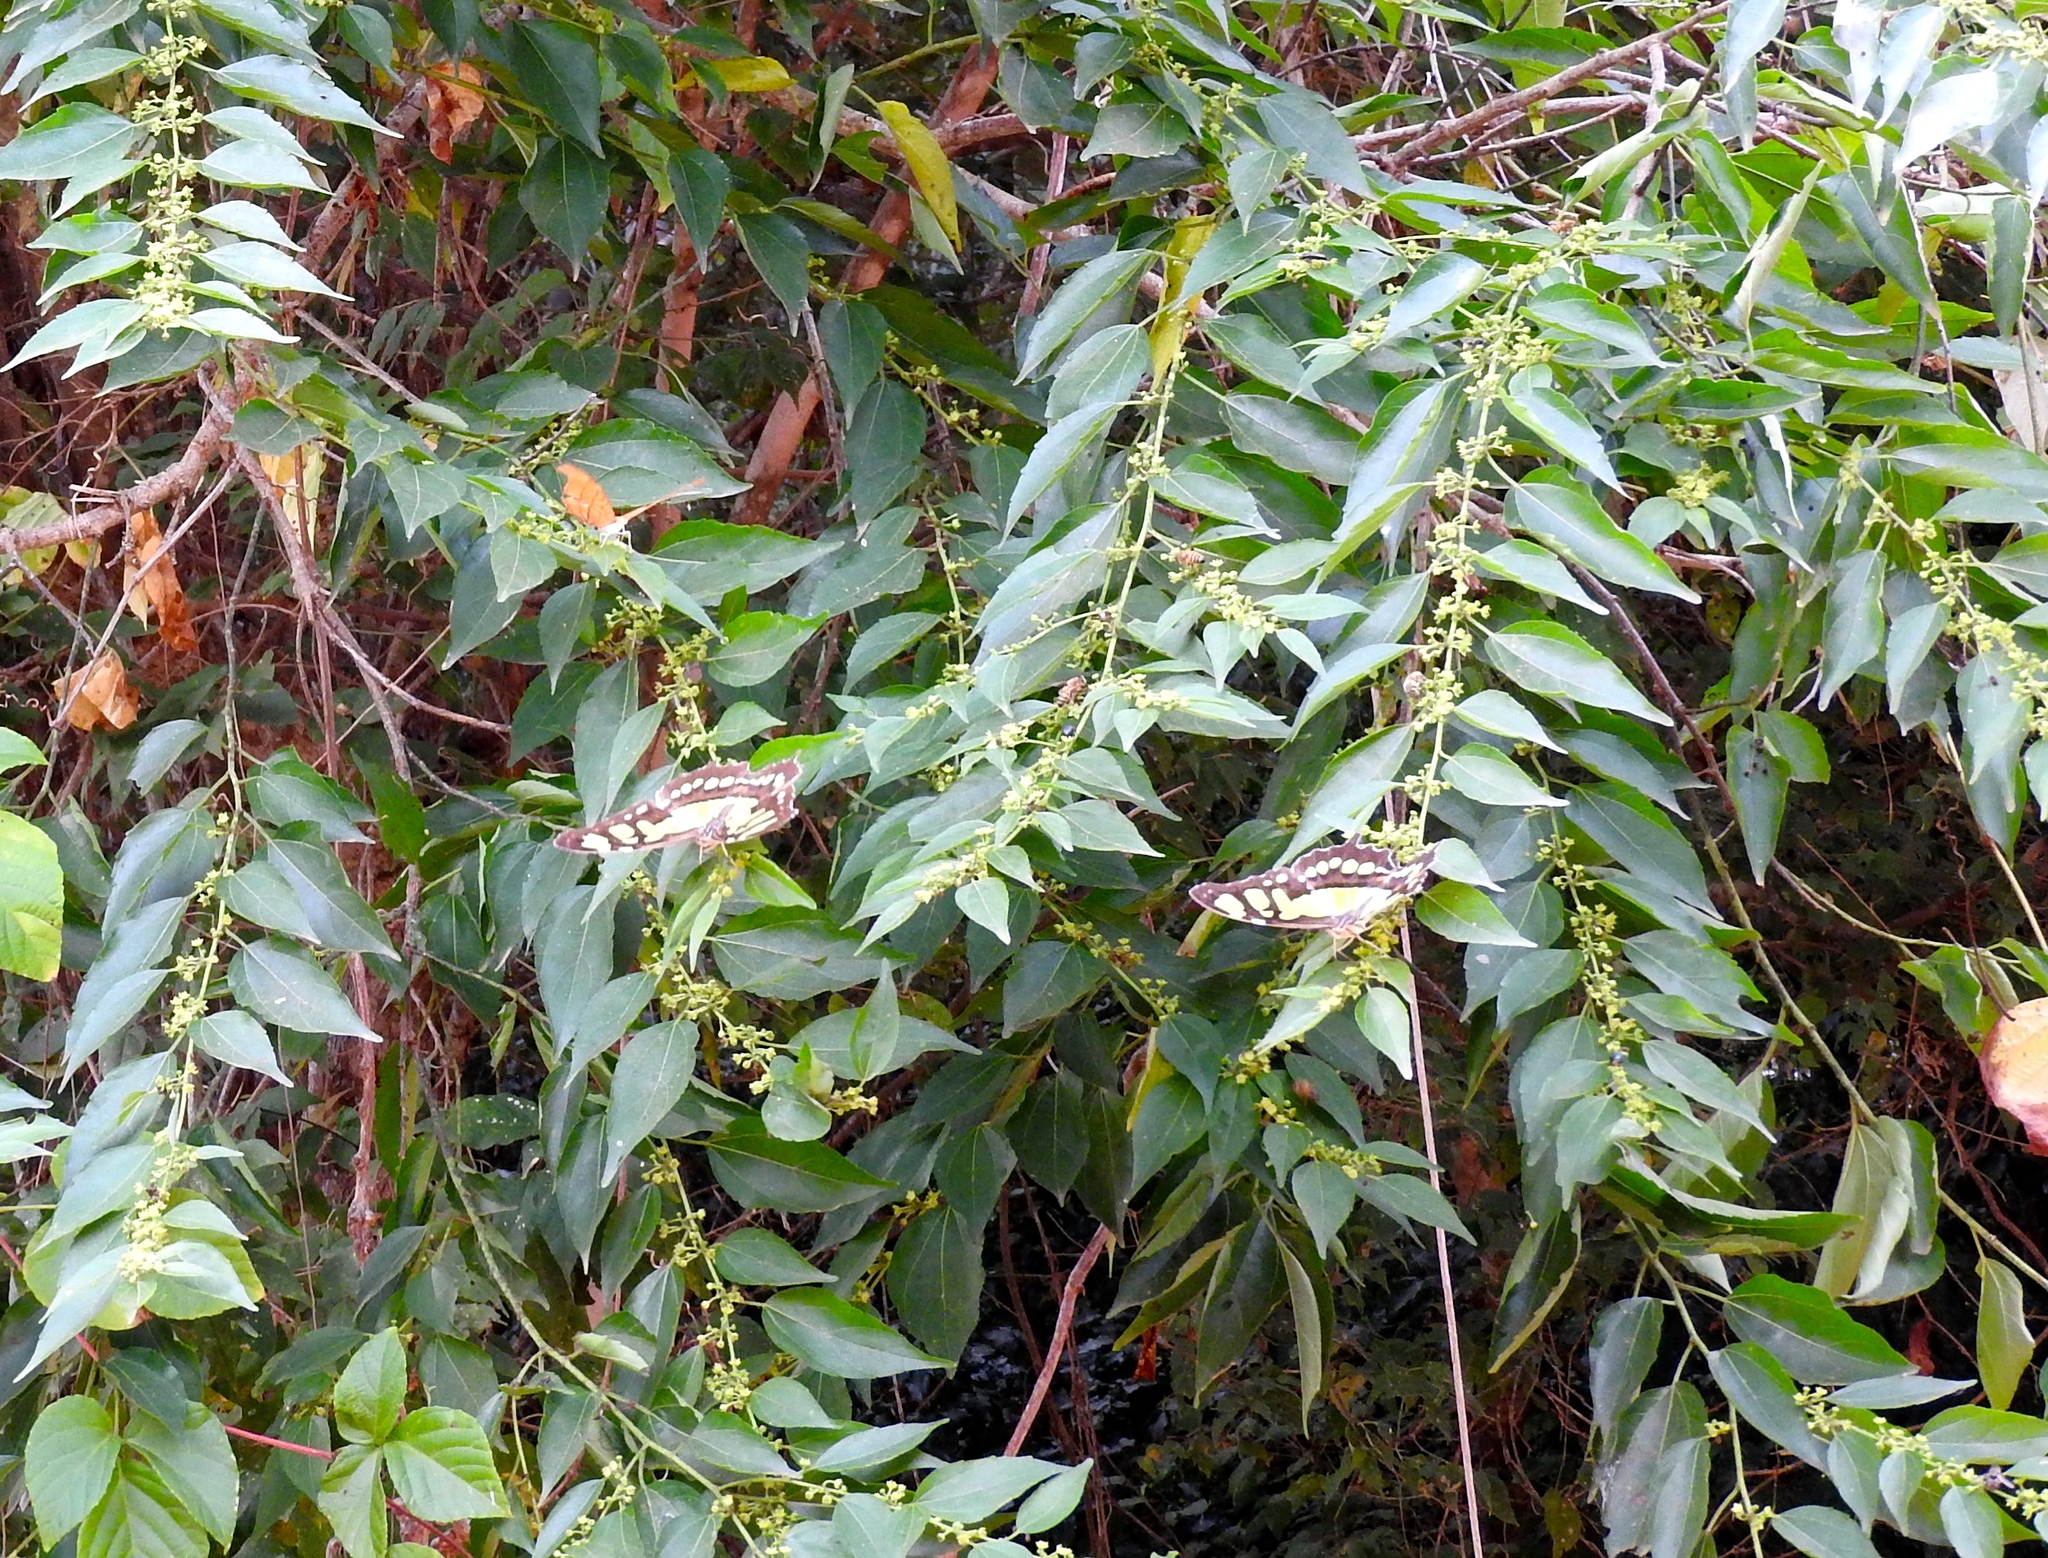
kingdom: Plantae
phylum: Tracheophyta
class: Magnoliopsida
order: Rosales
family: Rhamnaceae
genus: Colubrina
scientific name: Colubrina triflora
